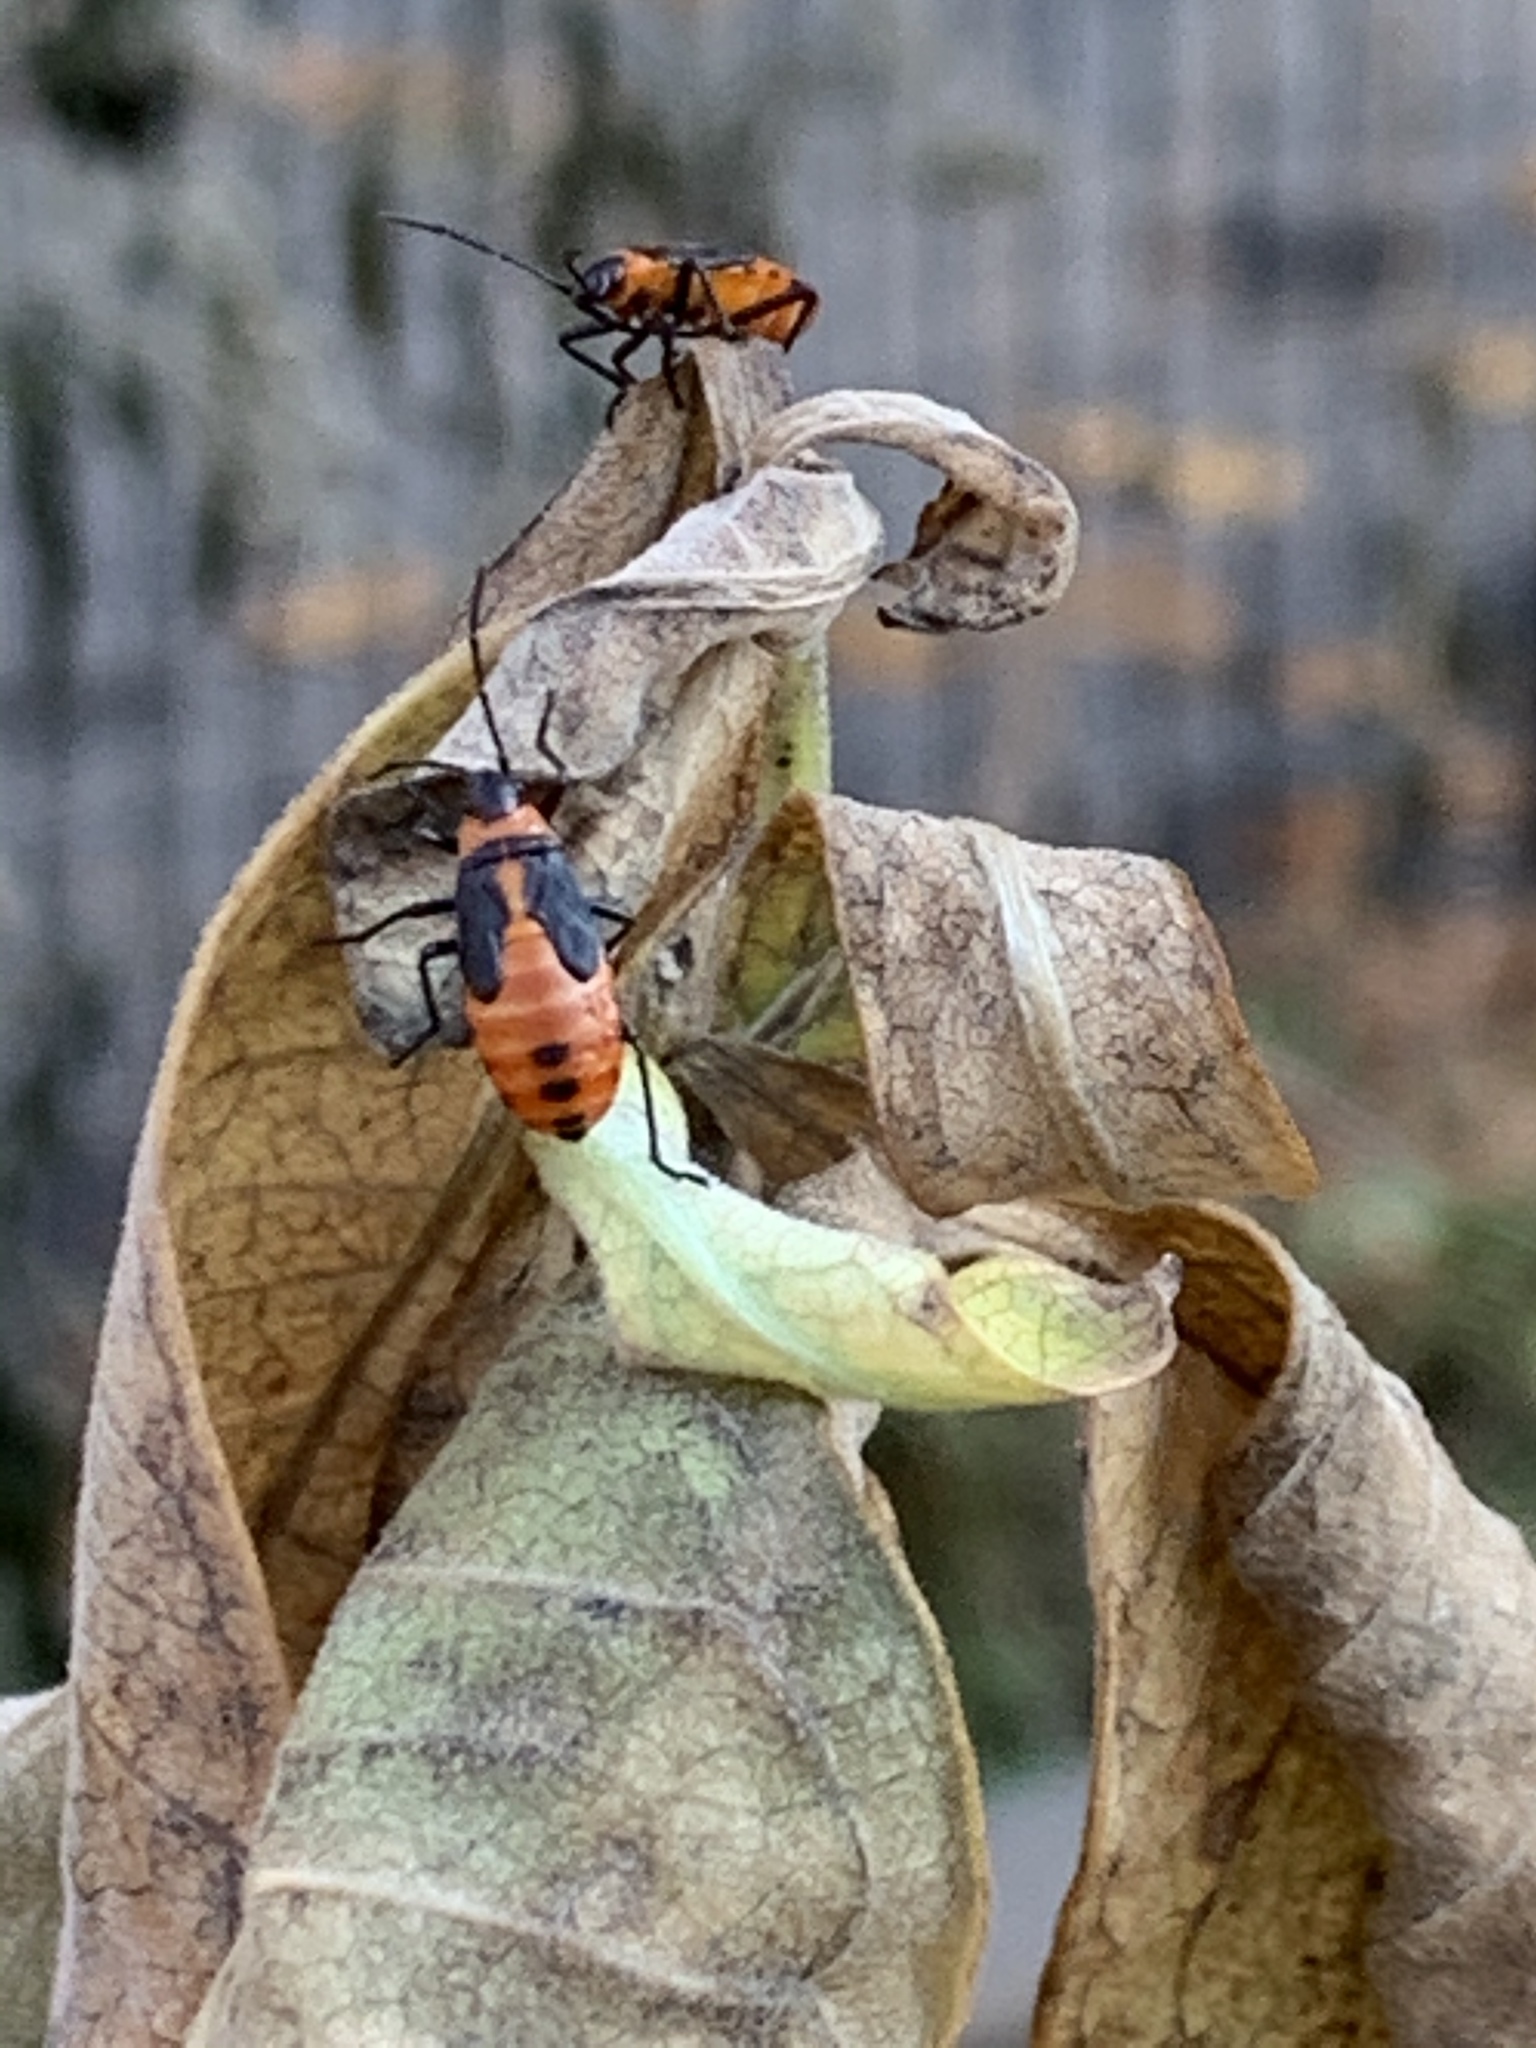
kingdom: Animalia
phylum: Arthropoda
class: Insecta
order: Hemiptera
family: Lygaeidae
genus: Oncopeltus
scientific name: Oncopeltus fasciatus
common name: Large milkweed bug
